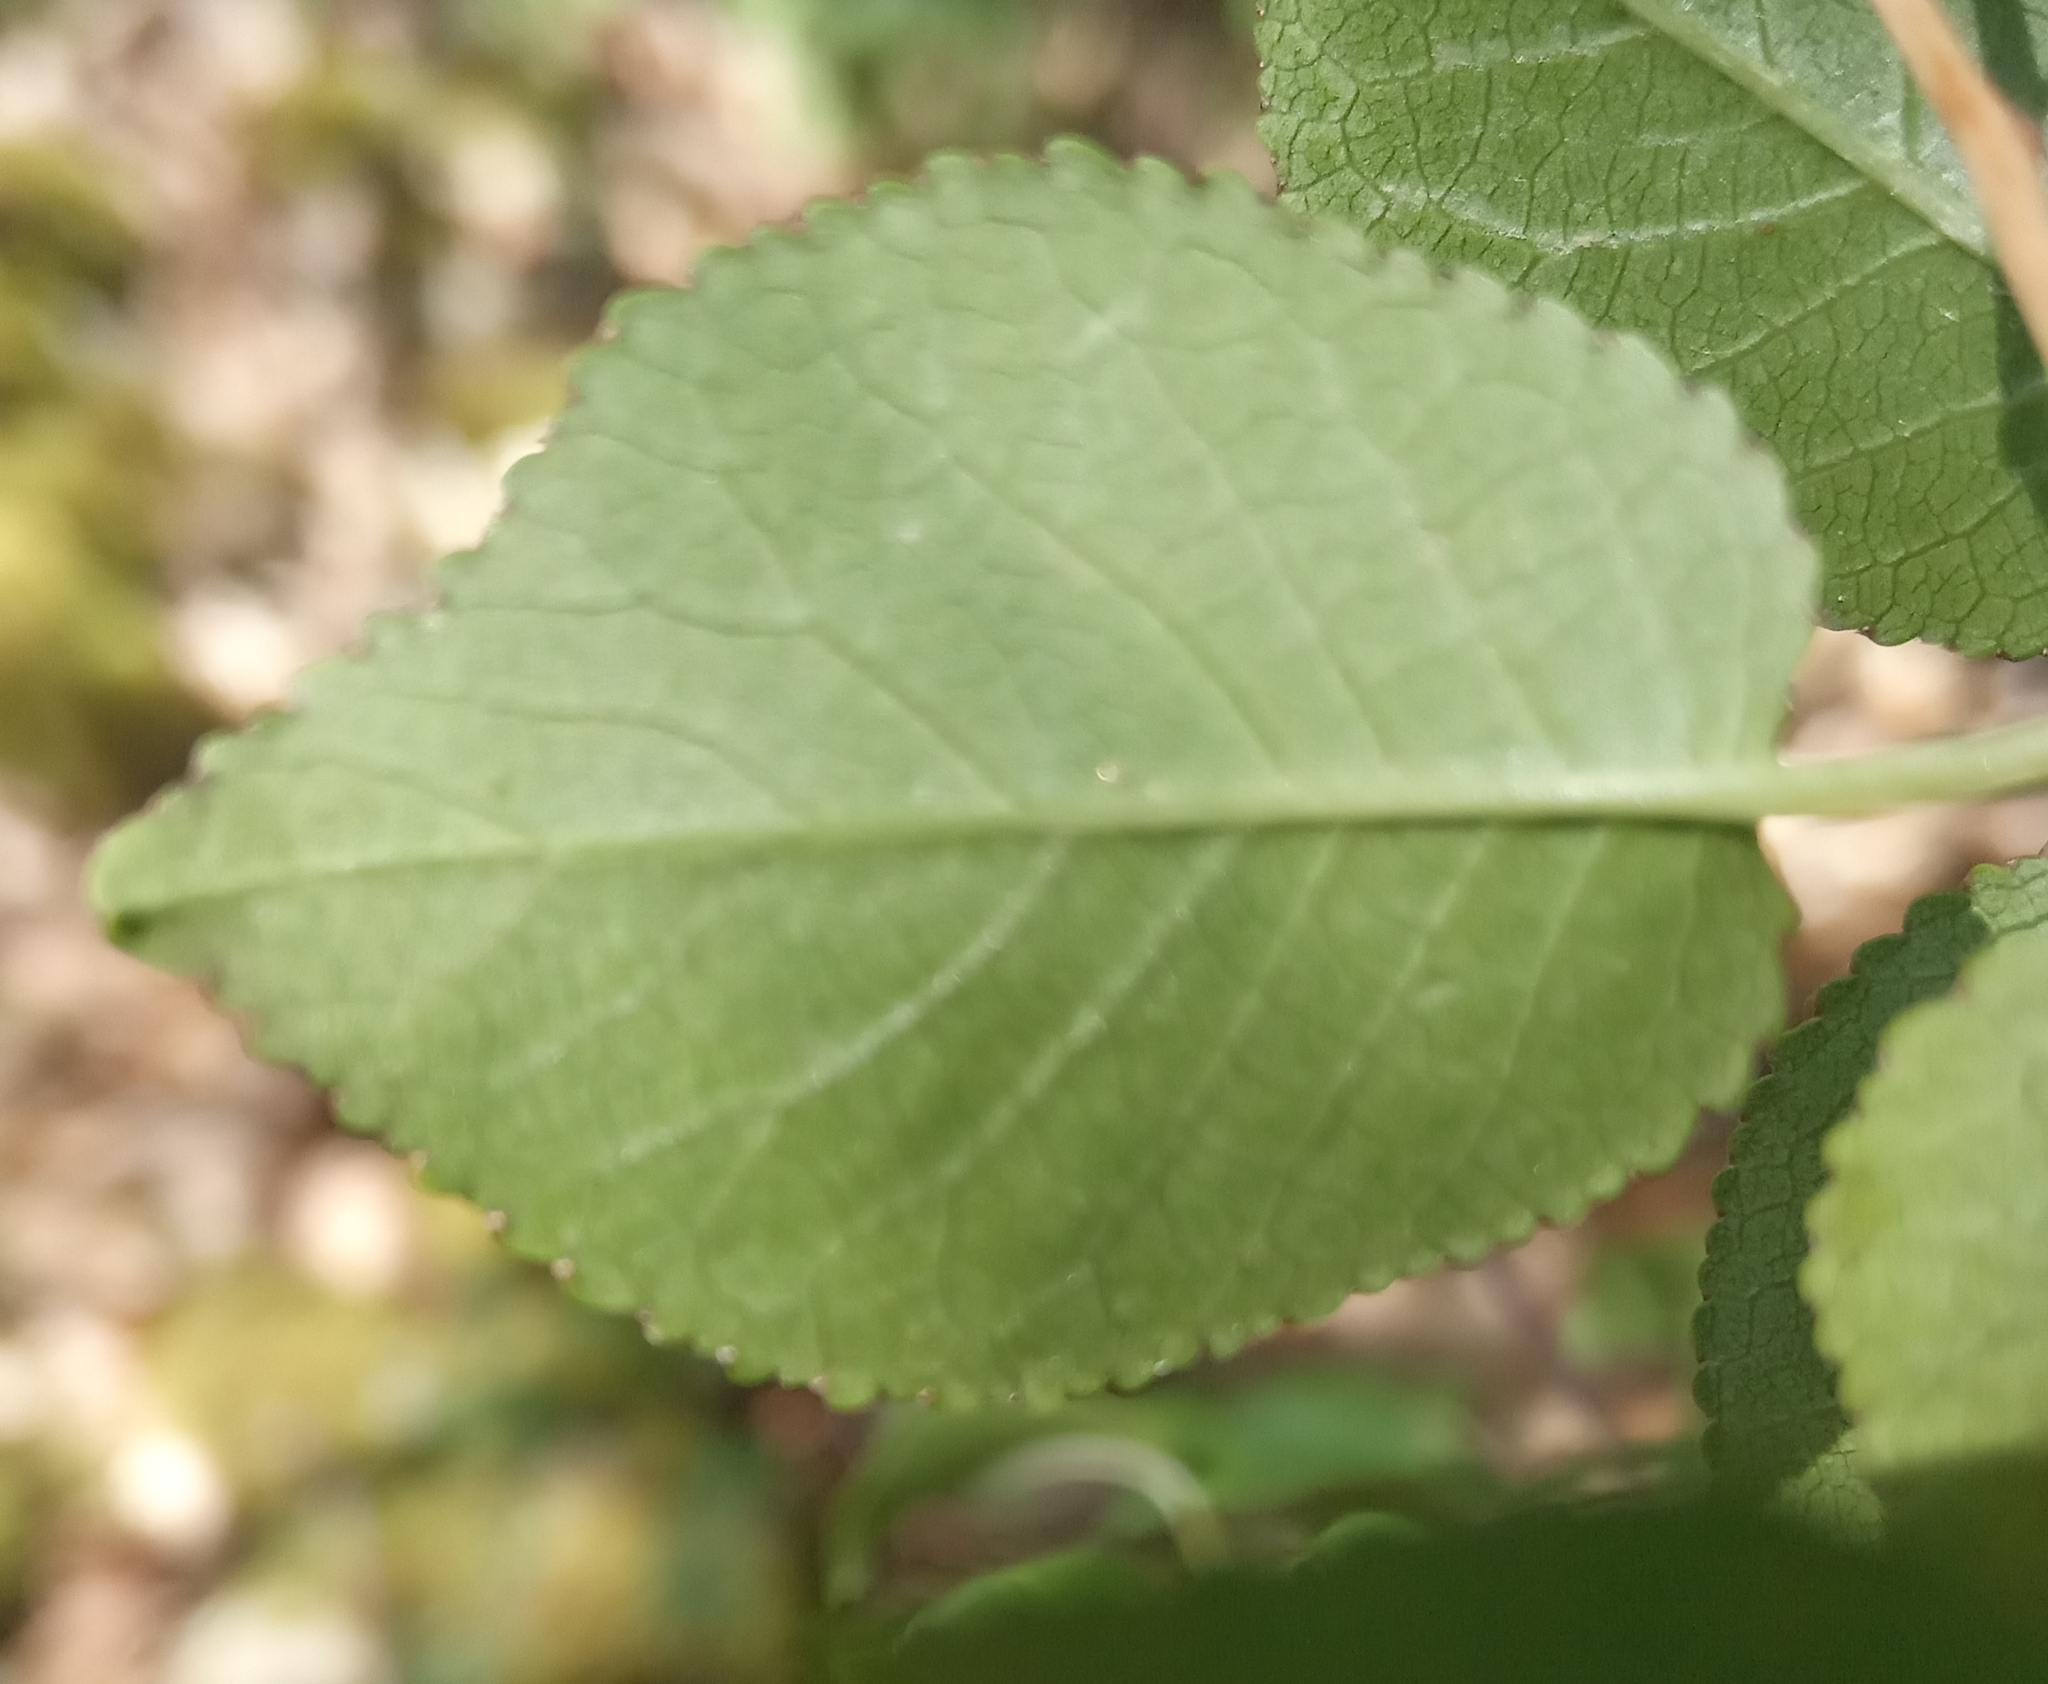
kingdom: Plantae
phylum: Tracheophyta
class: Magnoliopsida
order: Rosales
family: Rosaceae
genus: Prunus
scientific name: Prunus mahaleb
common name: Mahaleb cherry
